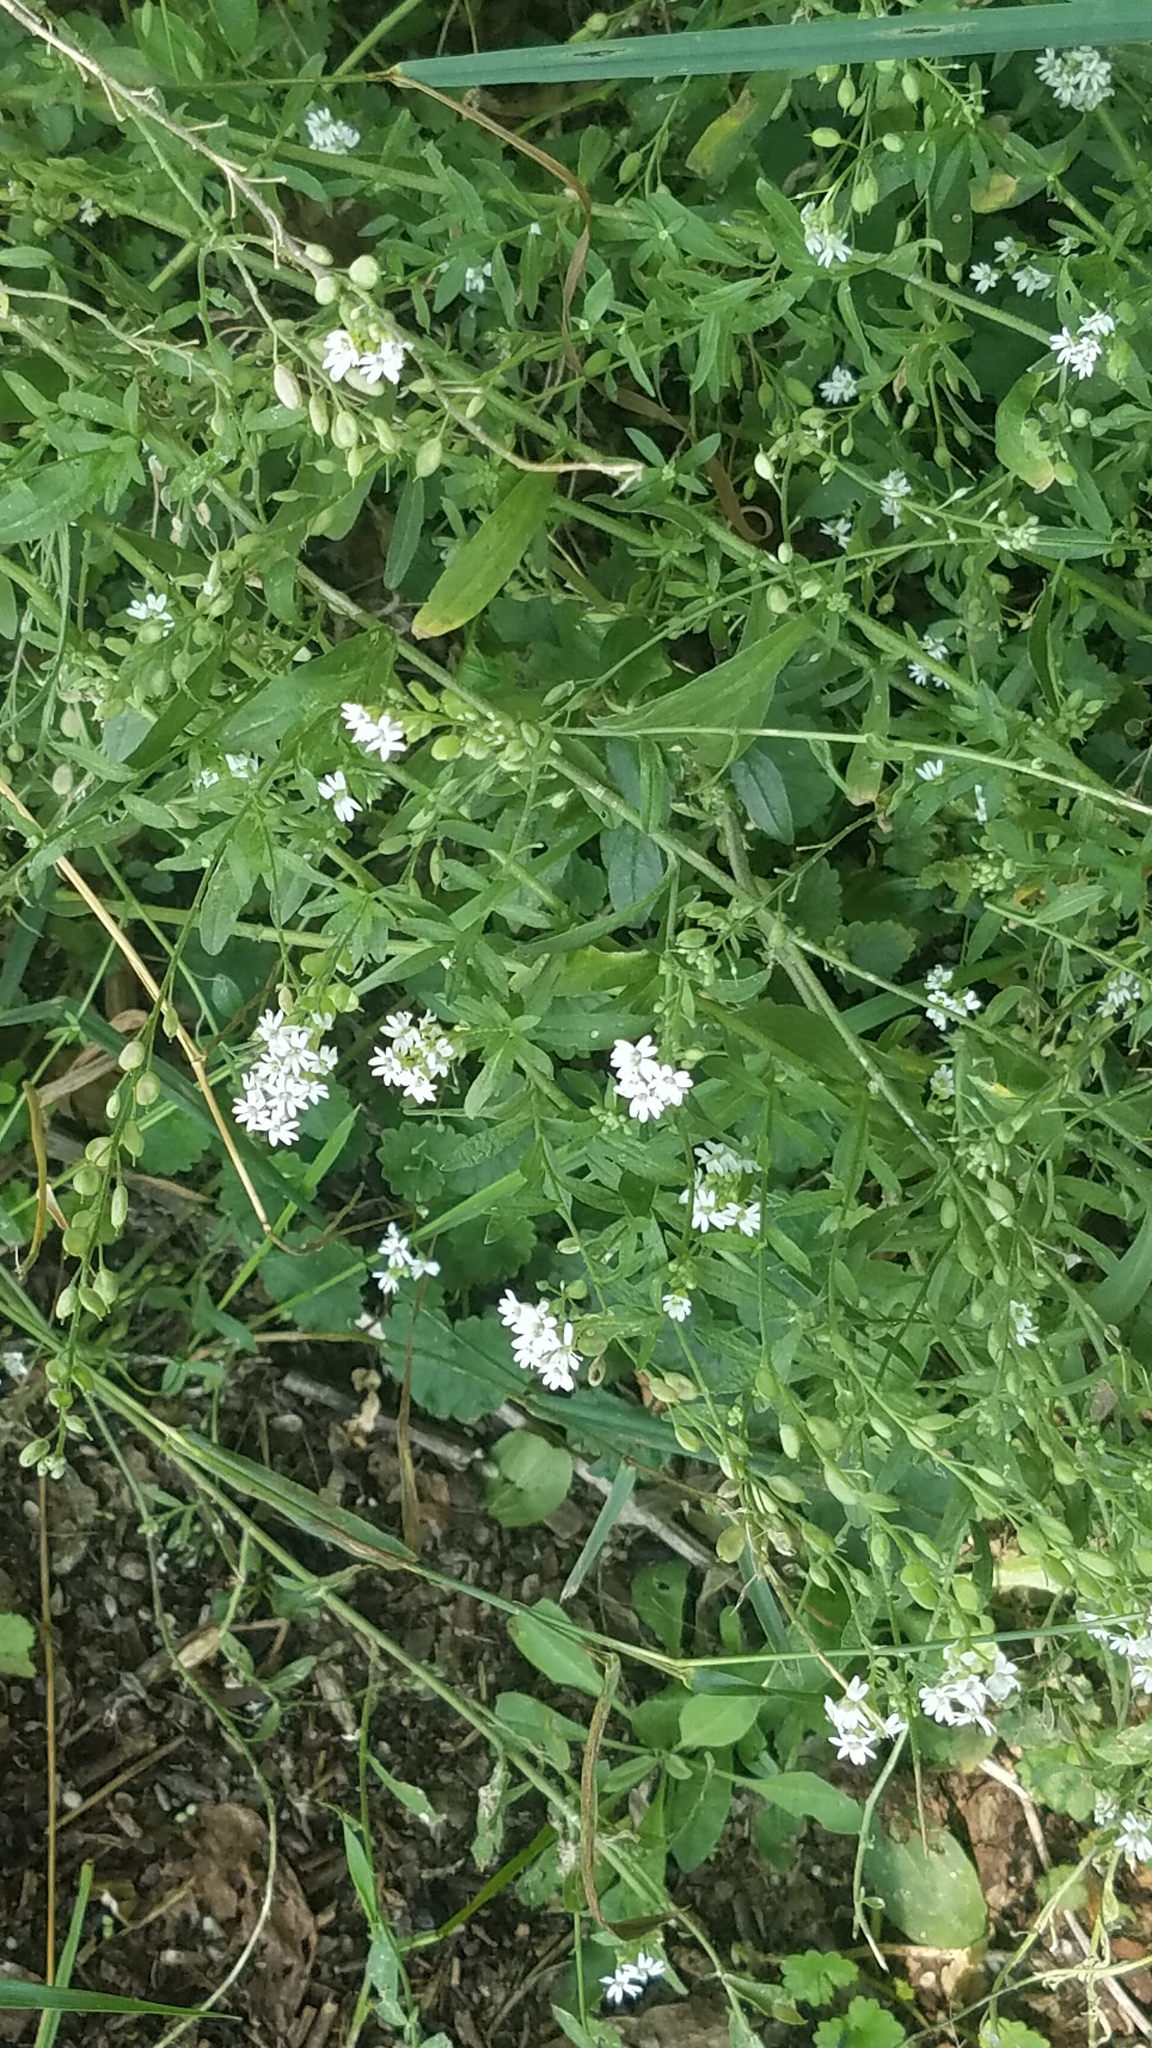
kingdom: Plantae
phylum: Tracheophyta
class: Magnoliopsida
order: Brassicales
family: Brassicaceae
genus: Berteroa
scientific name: Berteroa incana
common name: Hoary alison
